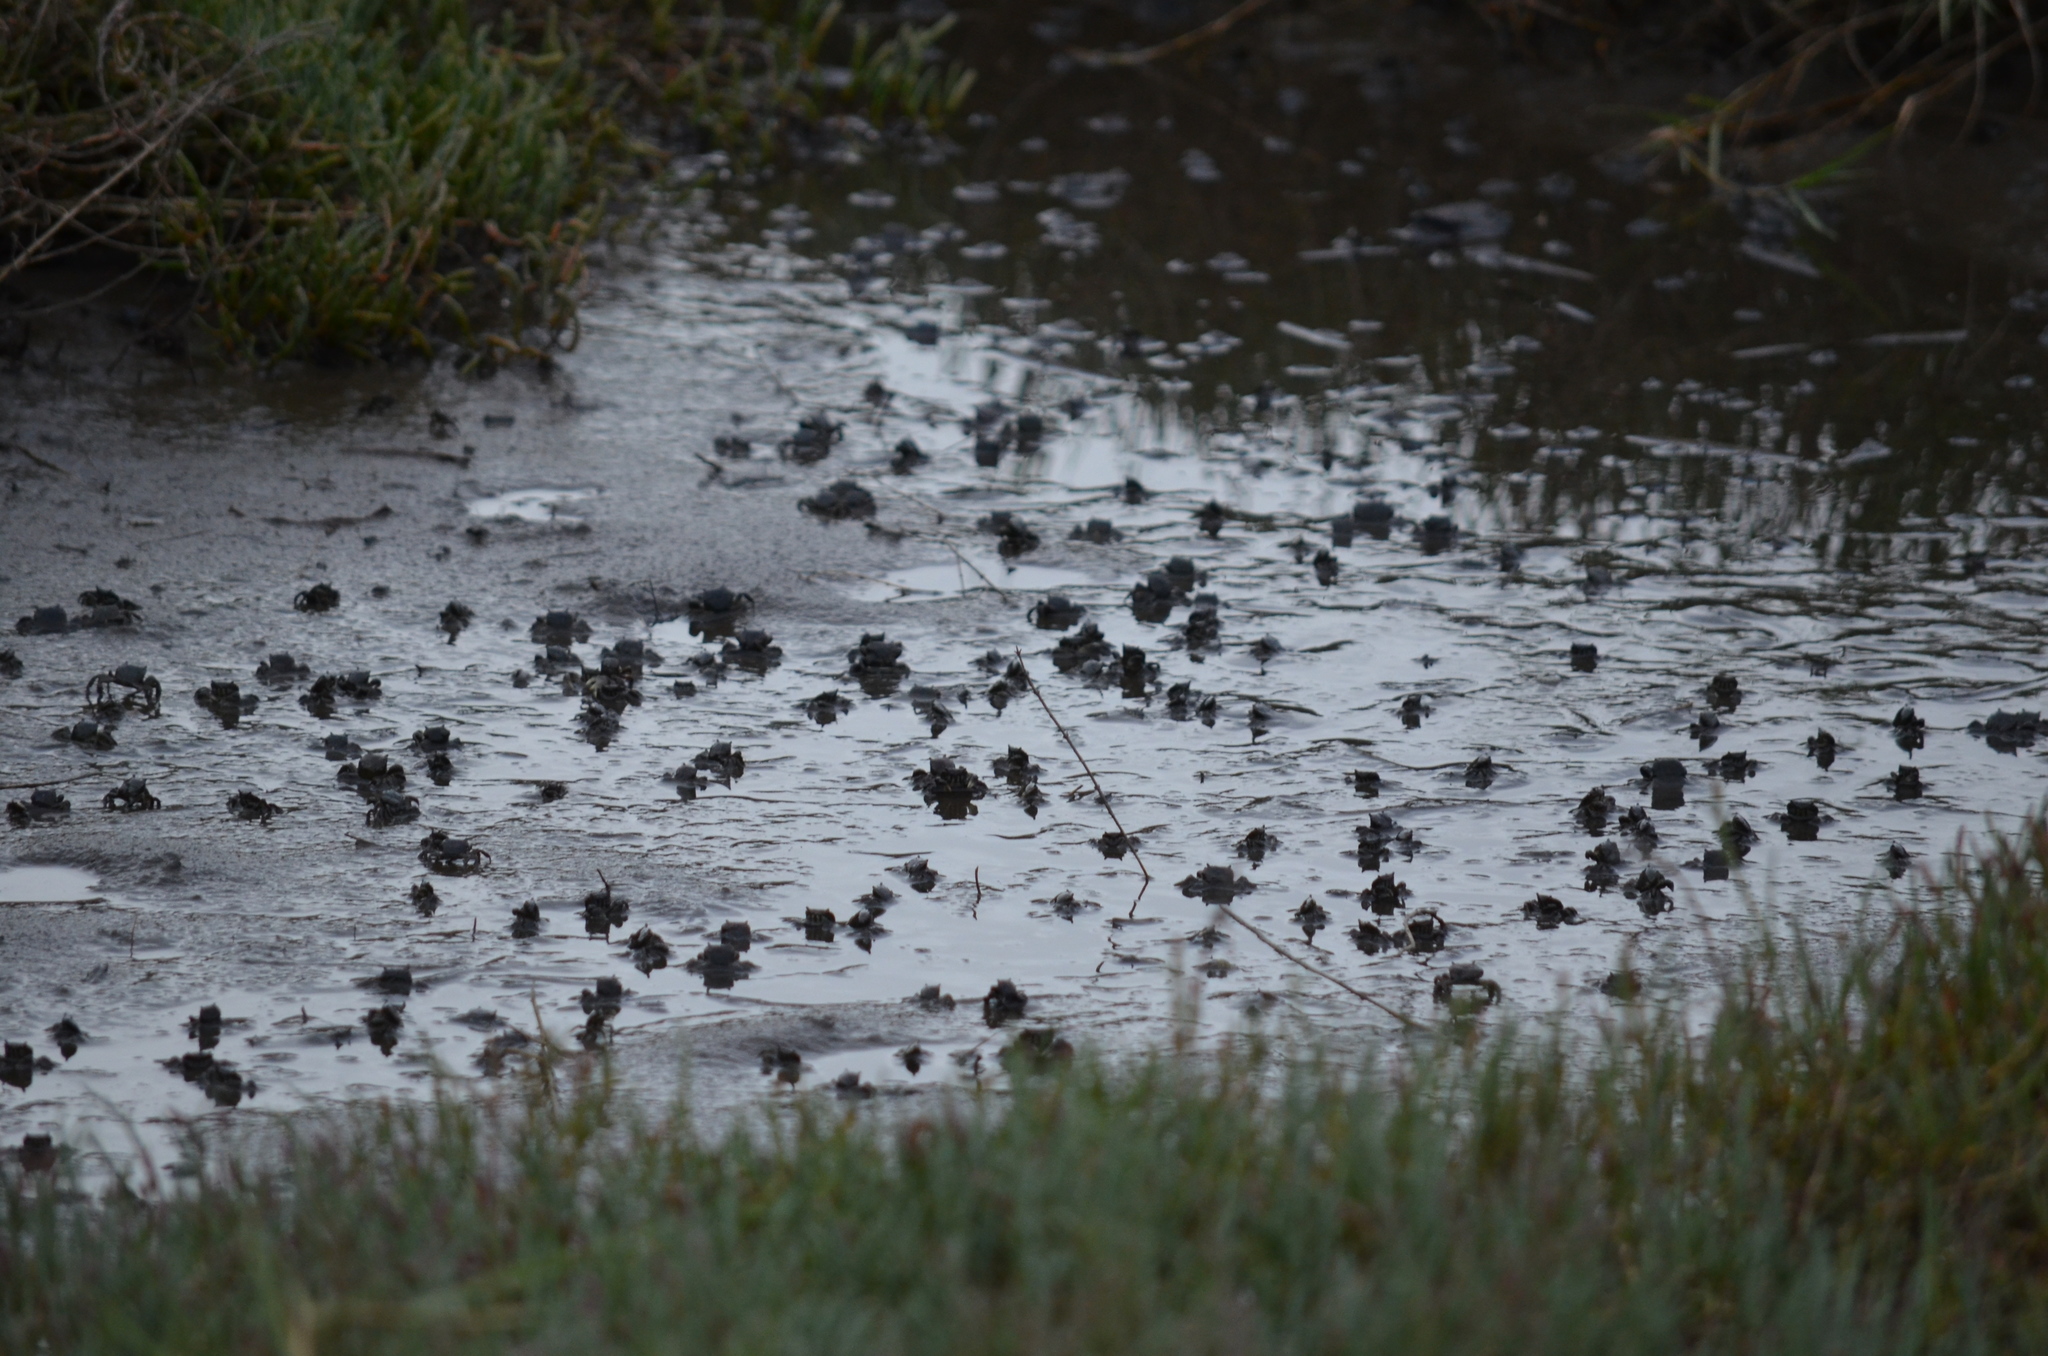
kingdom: Animalia
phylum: Arthropoda
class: Malacostraca
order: Decapoda
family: Varunidae
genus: Hemigrapsus
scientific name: Hemigrapsus oregonensis
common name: Yellow shore crab
